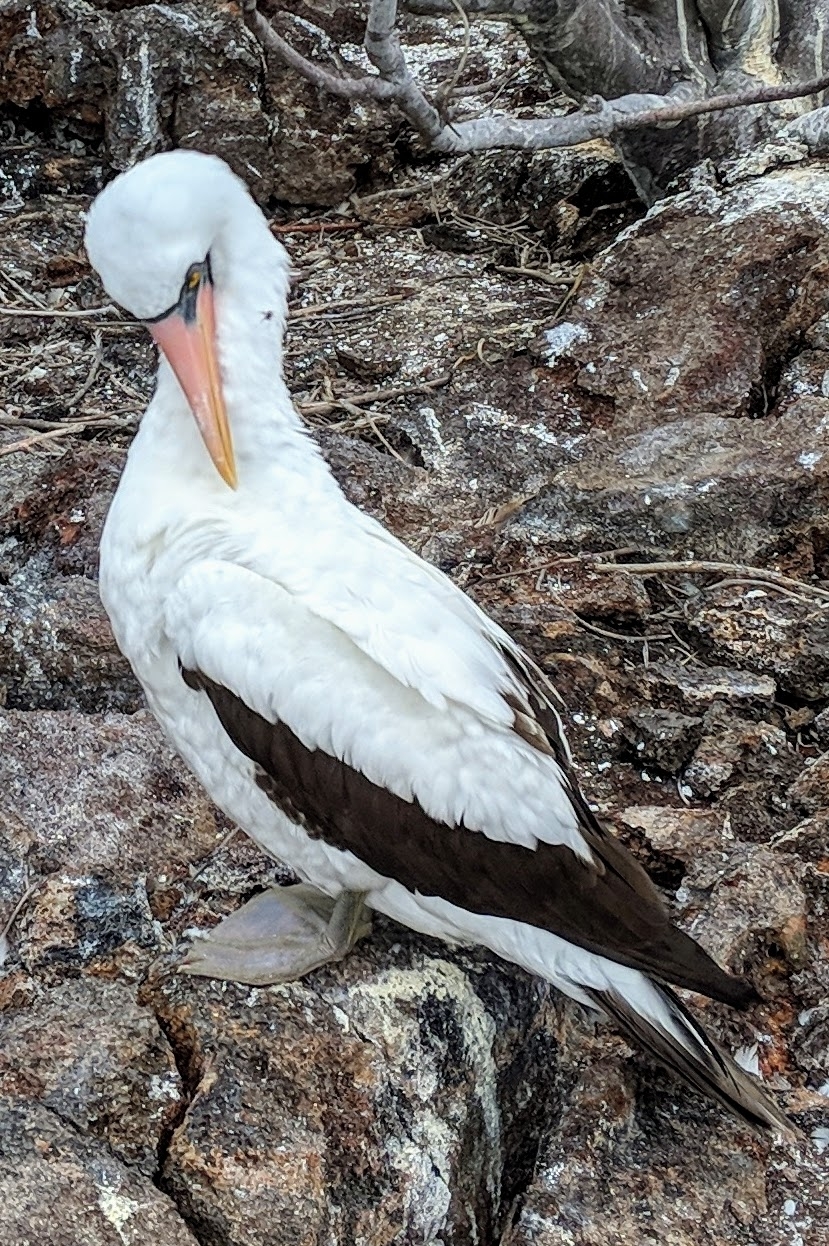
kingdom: Animalia
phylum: Chordata
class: Aves
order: Suliformes
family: Sulidae
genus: Sula
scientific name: Sula granti
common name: Nazca booby
